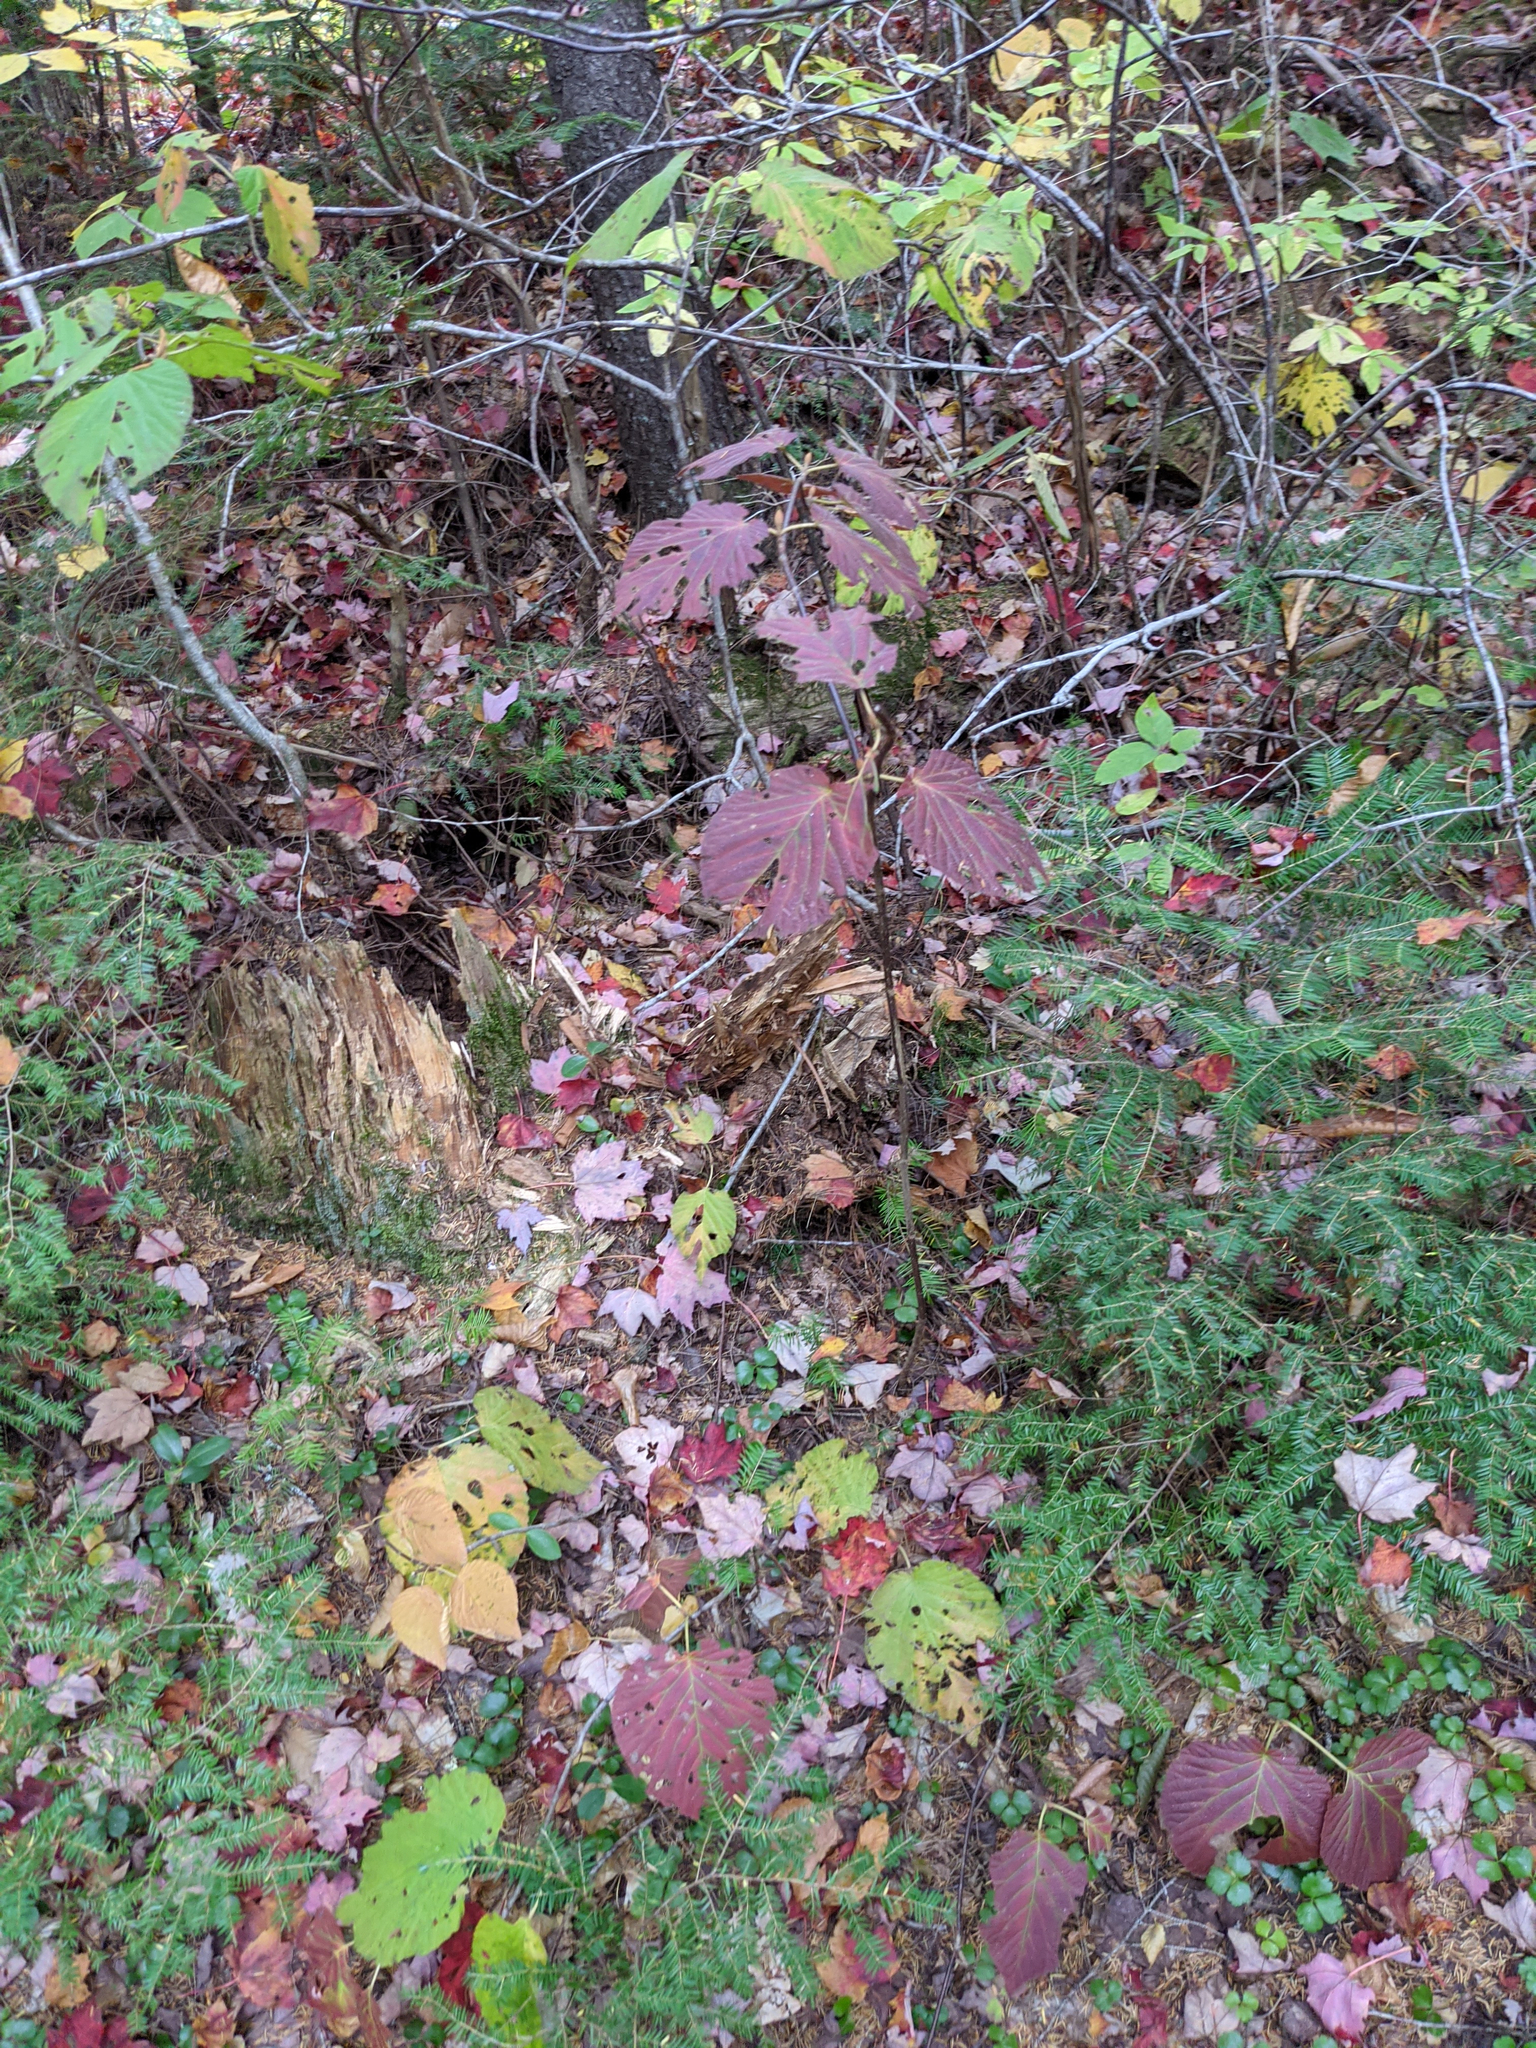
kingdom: Plantae
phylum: Tracheophyta
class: Magnoliopsida
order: Dipsacales
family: Viburnaceae
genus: Viburnum
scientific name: Viburnum lantanoides
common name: Hobblebush
